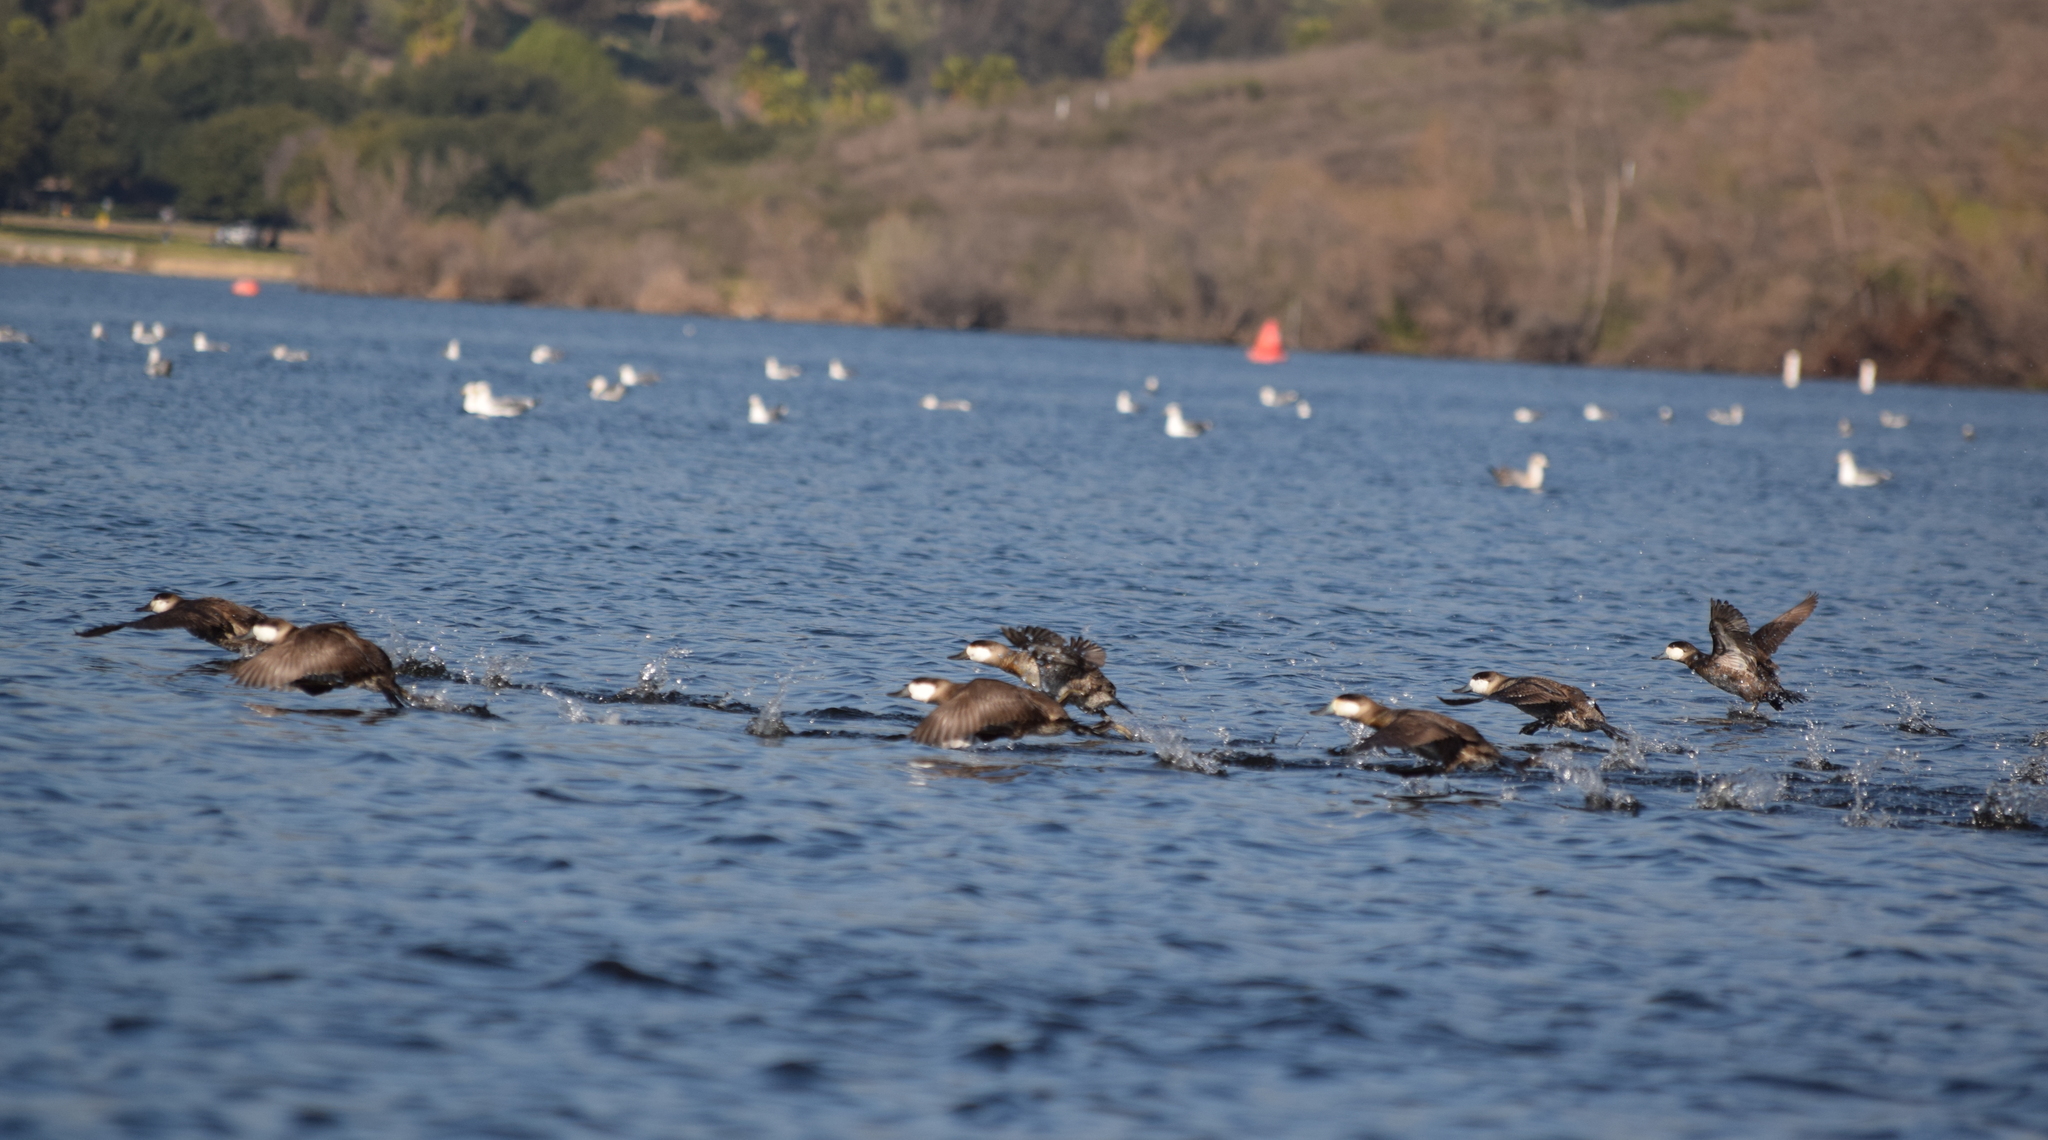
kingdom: Animalia
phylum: Chordata
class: Aves
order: Anseriformes
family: Anatidae
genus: Oxyura
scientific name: Oxyura jamaicensis
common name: Ruddy duck
